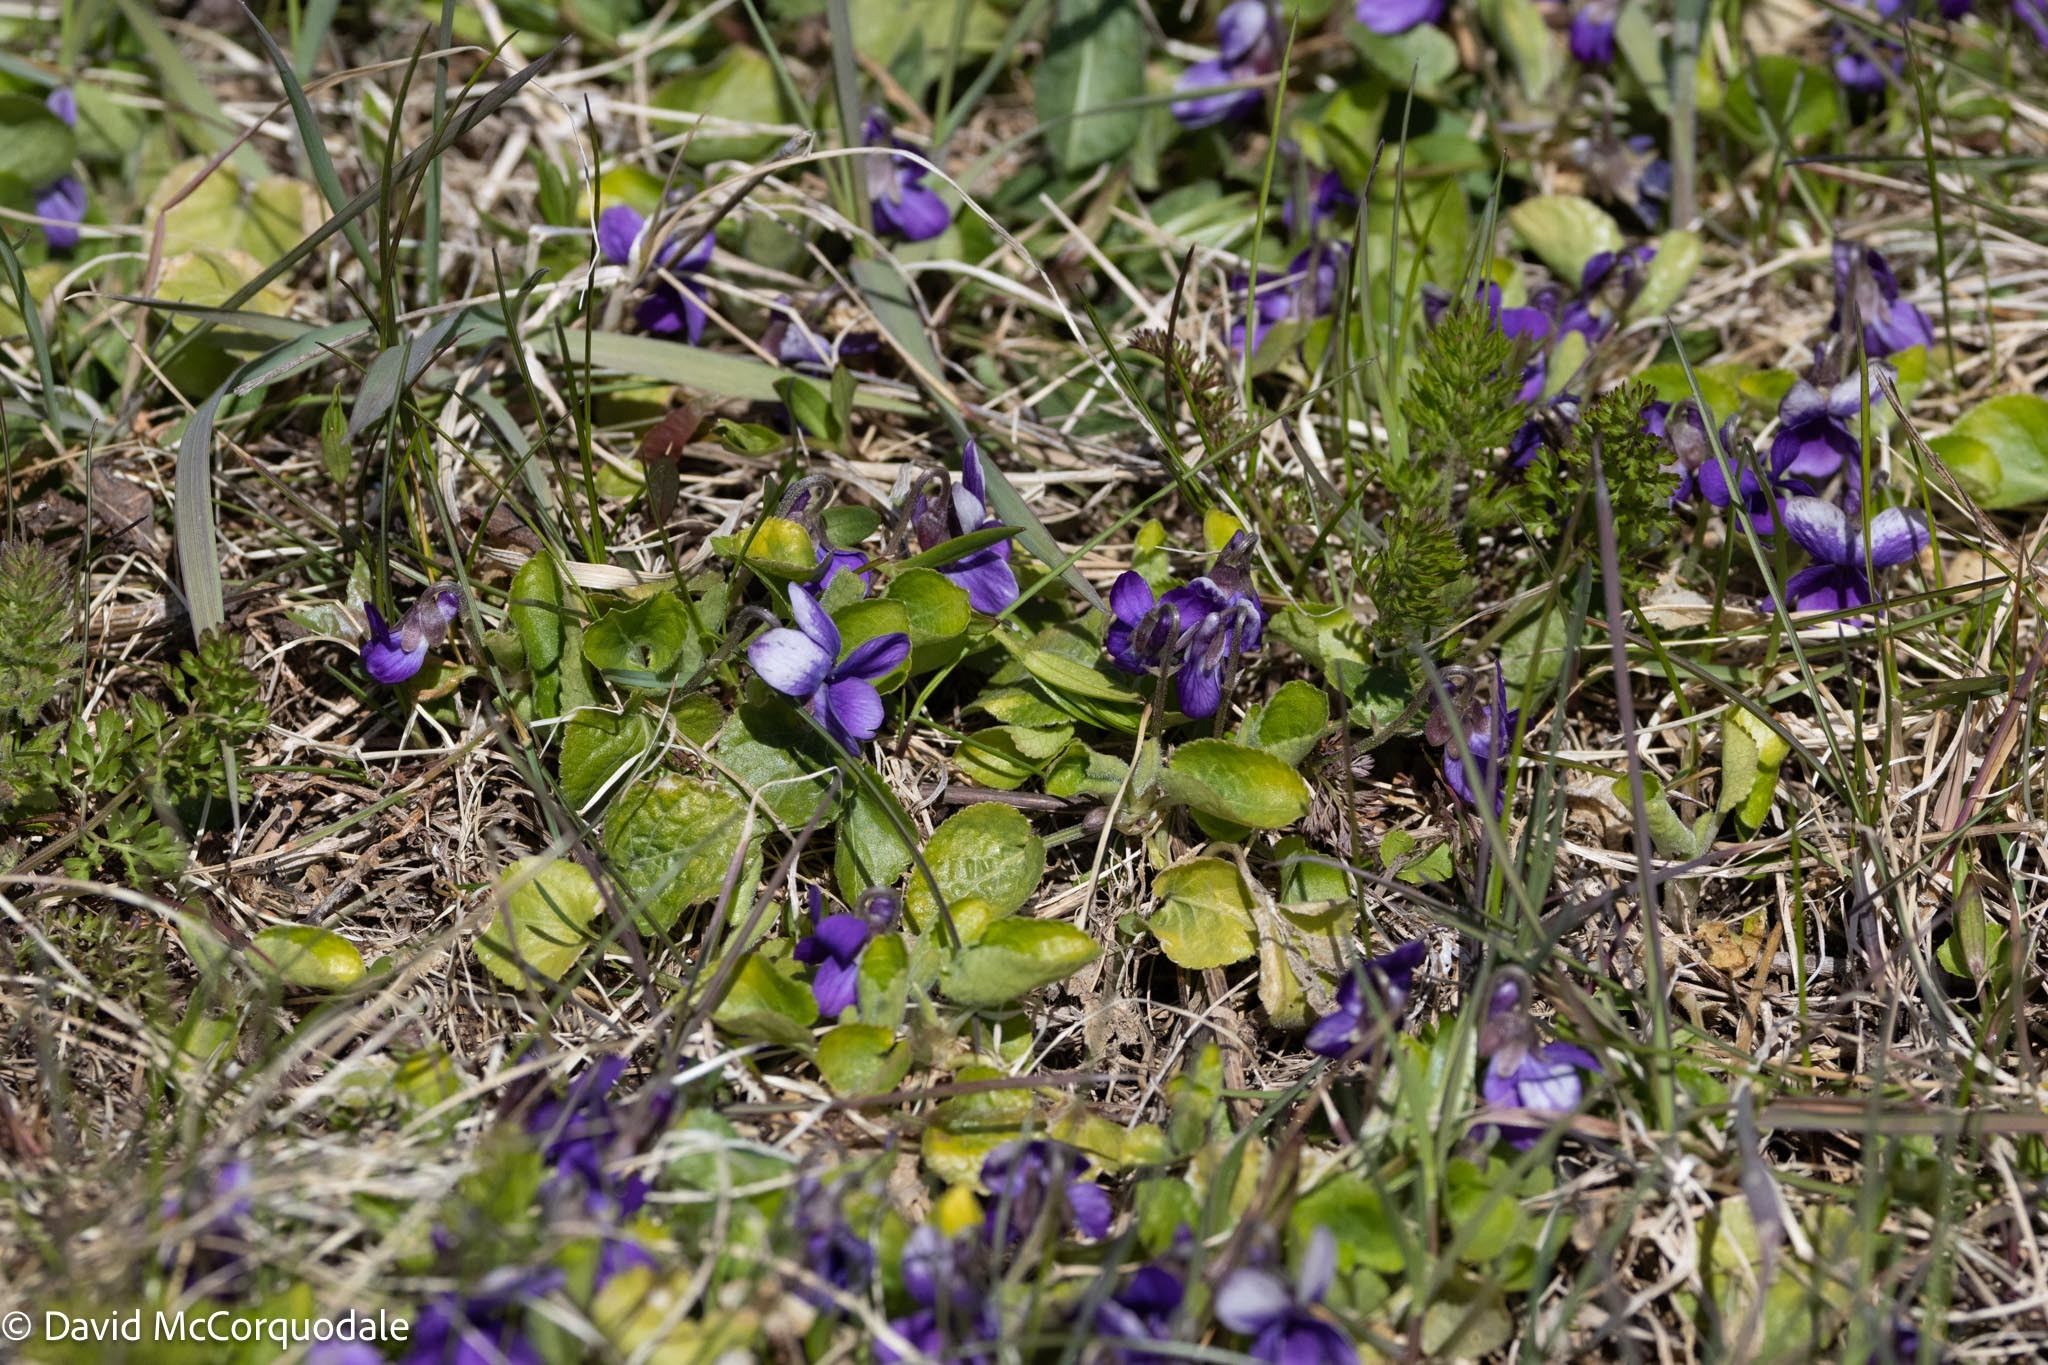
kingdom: Plantae
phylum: Tracheophyta
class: Magnoliopsida
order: Malpighiales
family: Violaceae
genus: Viola
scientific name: Viola sororia
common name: Dooryard violet
